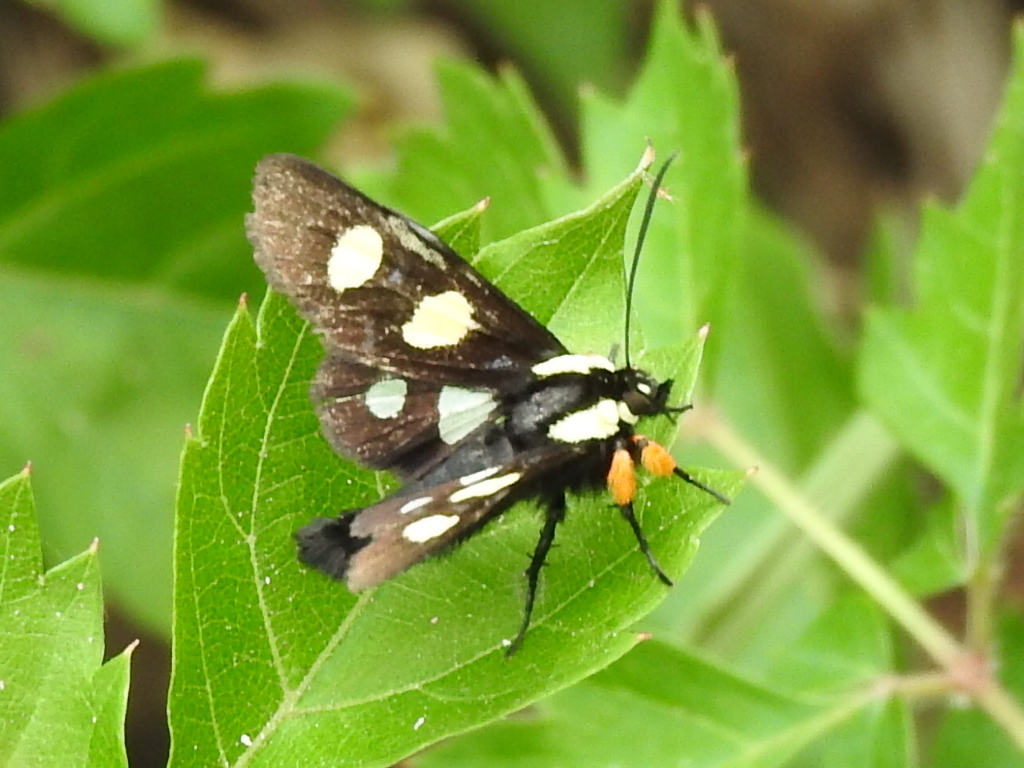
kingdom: Animalia
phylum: Arthropoda
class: Insecta
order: Lepidoptera
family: Noctuidae
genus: Alypia
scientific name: Alypia disparata
